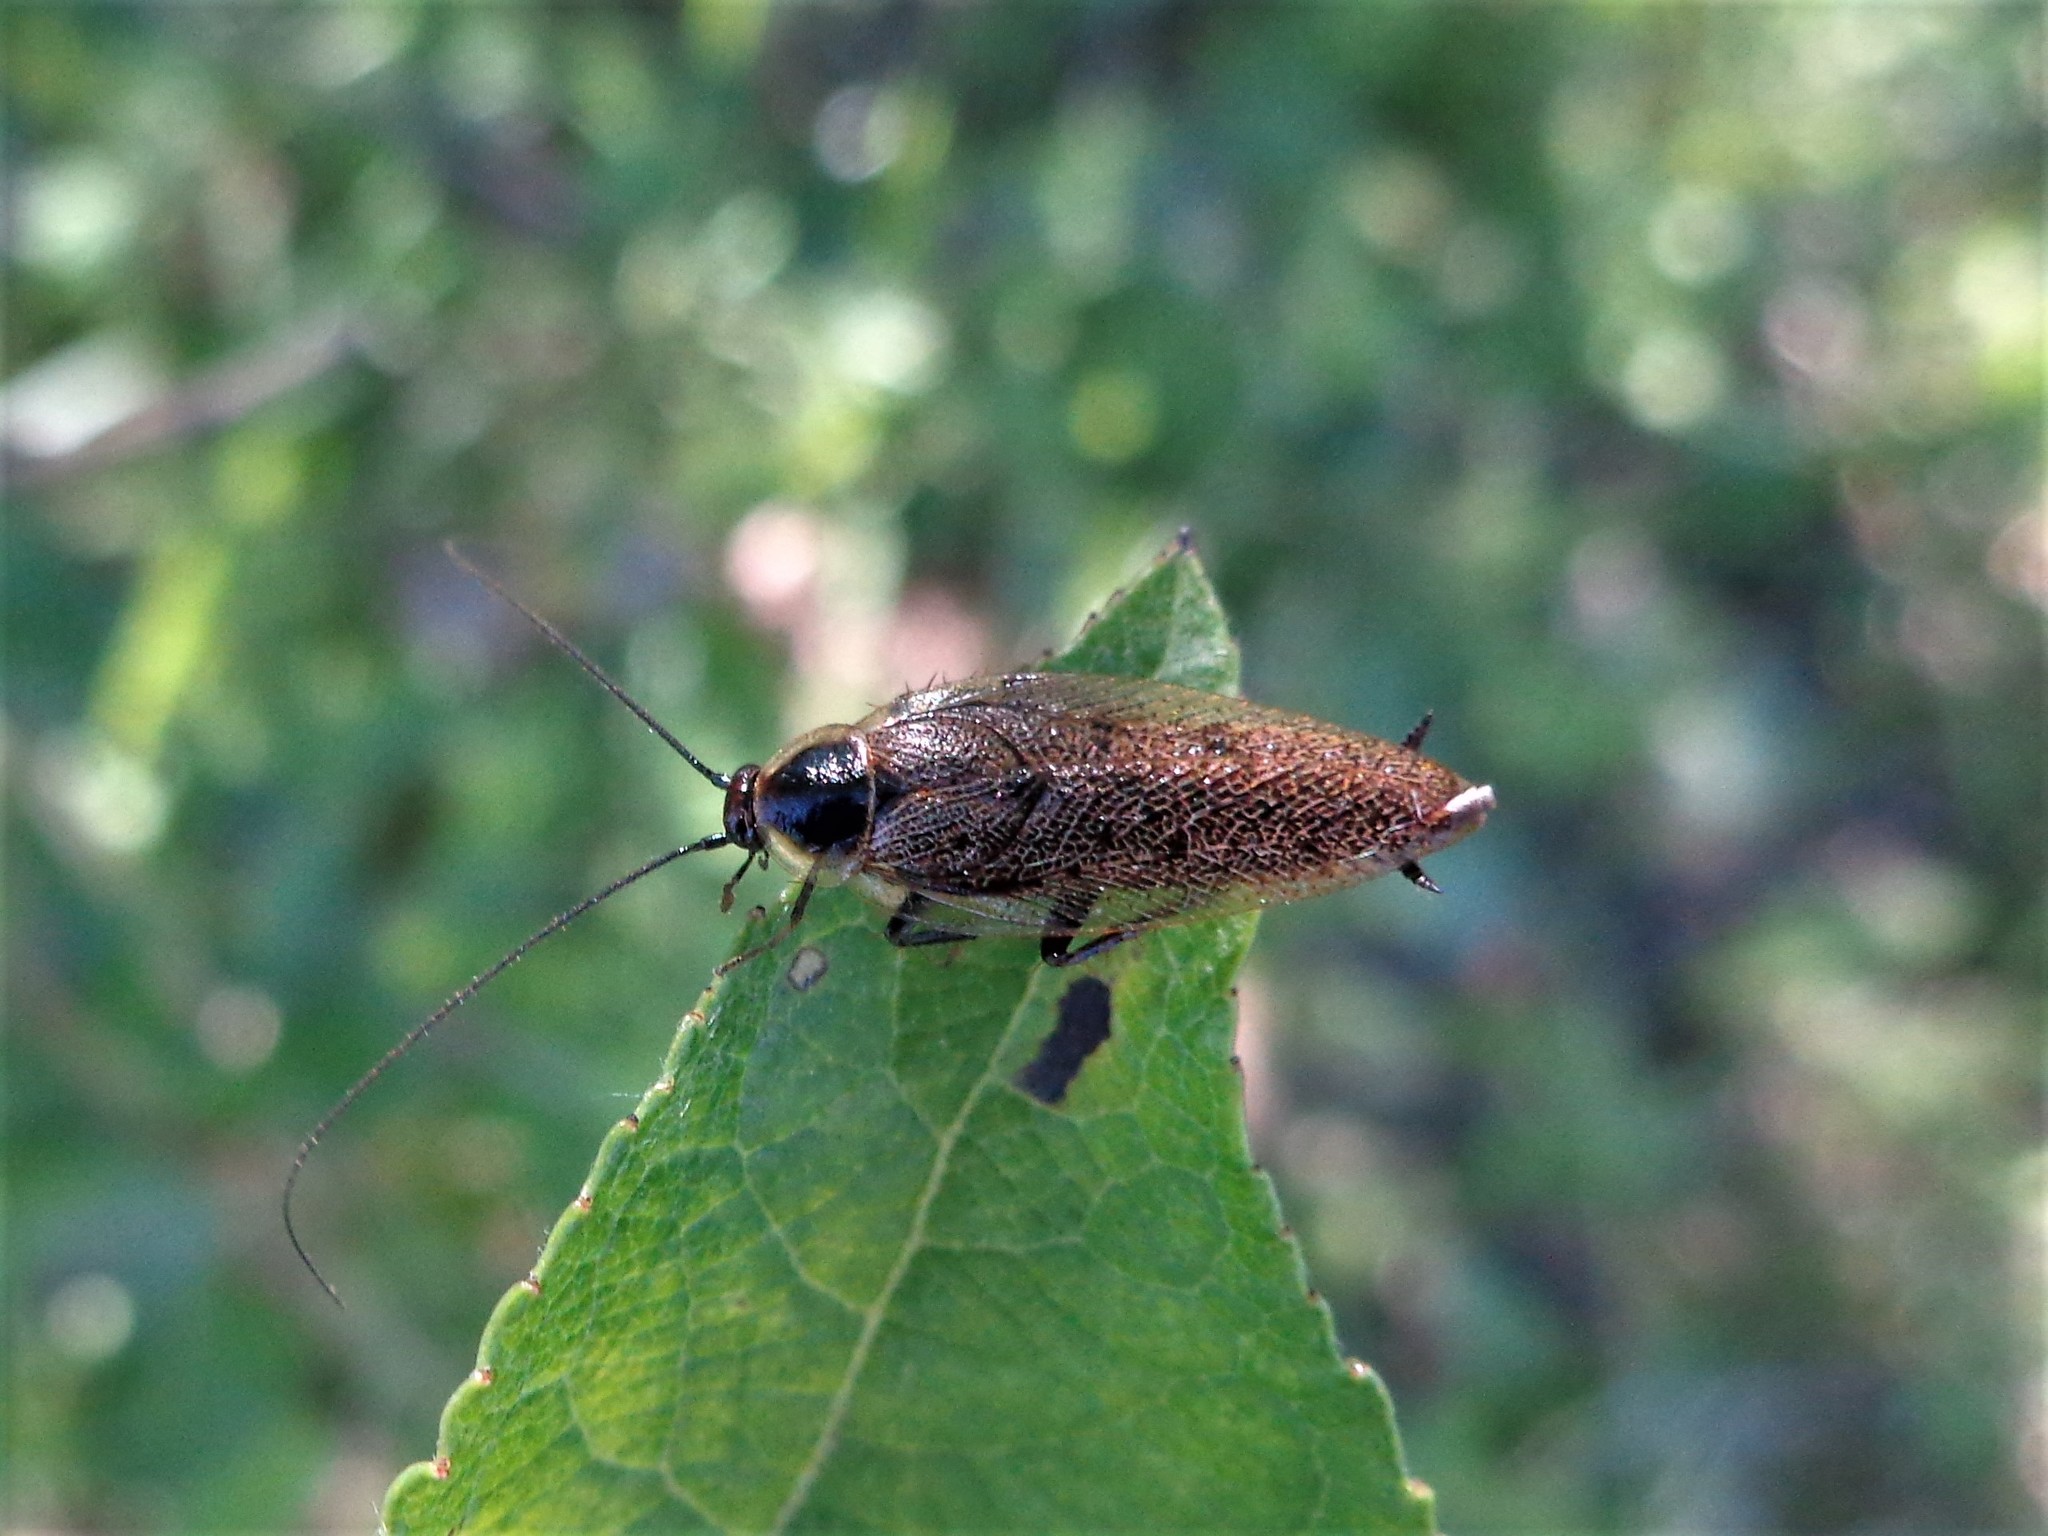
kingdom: Animalia
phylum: Arthropoda
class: Insecta
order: Blattodea
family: Ectobiidae
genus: Ectobius
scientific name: Ectobius lapponicus
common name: Dusky cockroach
